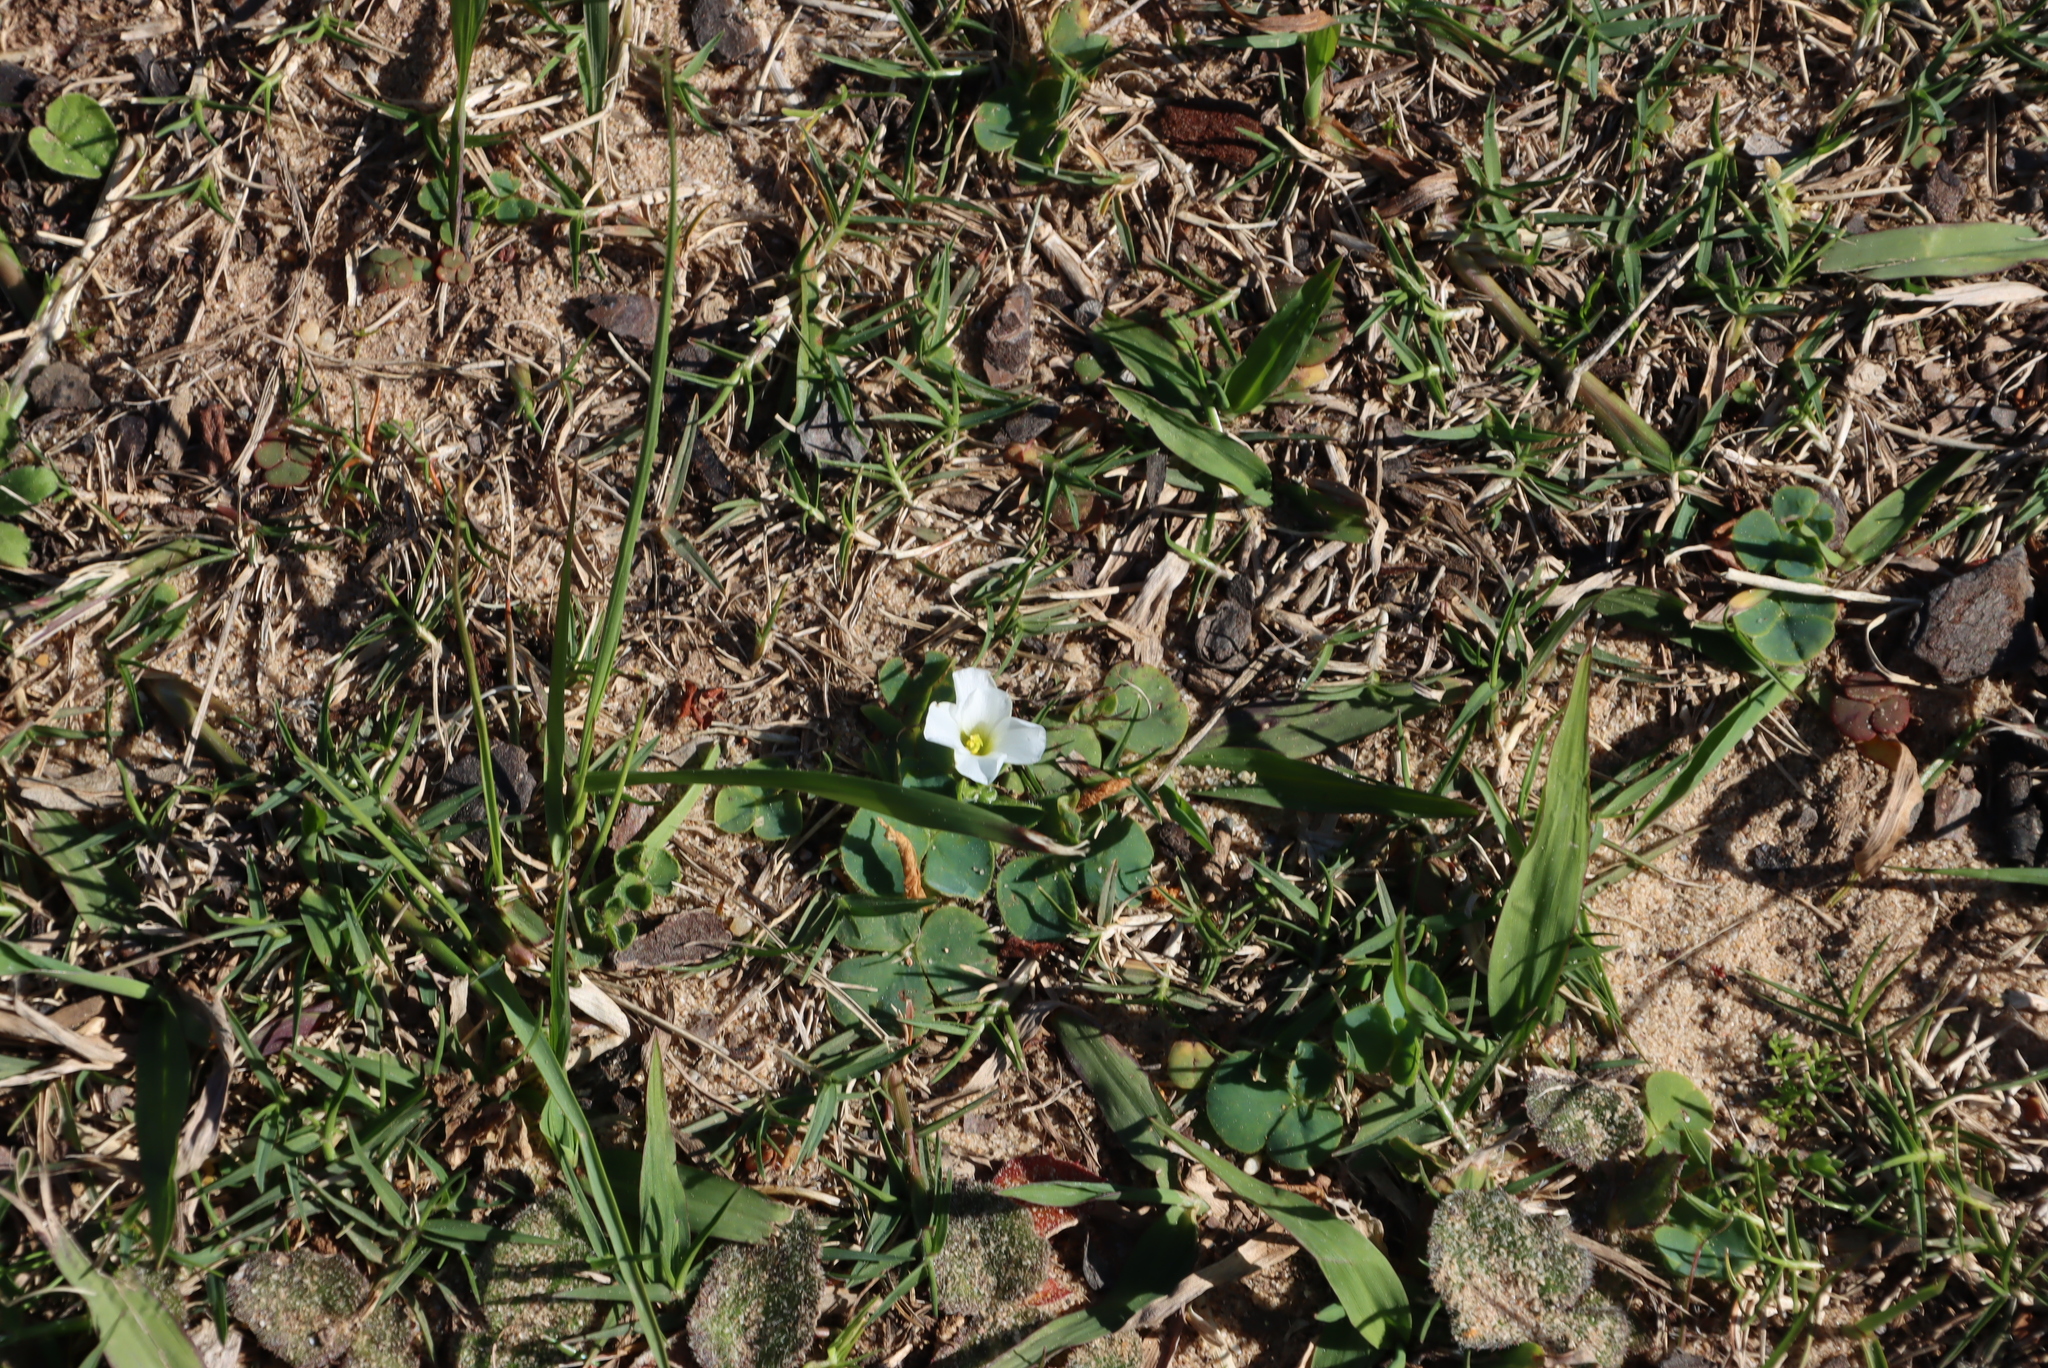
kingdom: Plantae
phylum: Tracheophyta
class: Magnoliopsida
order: Oxalidales
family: Oxalidaceae
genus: Oxalis
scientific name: Oxalis purpurea
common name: Purple woodsorrel
